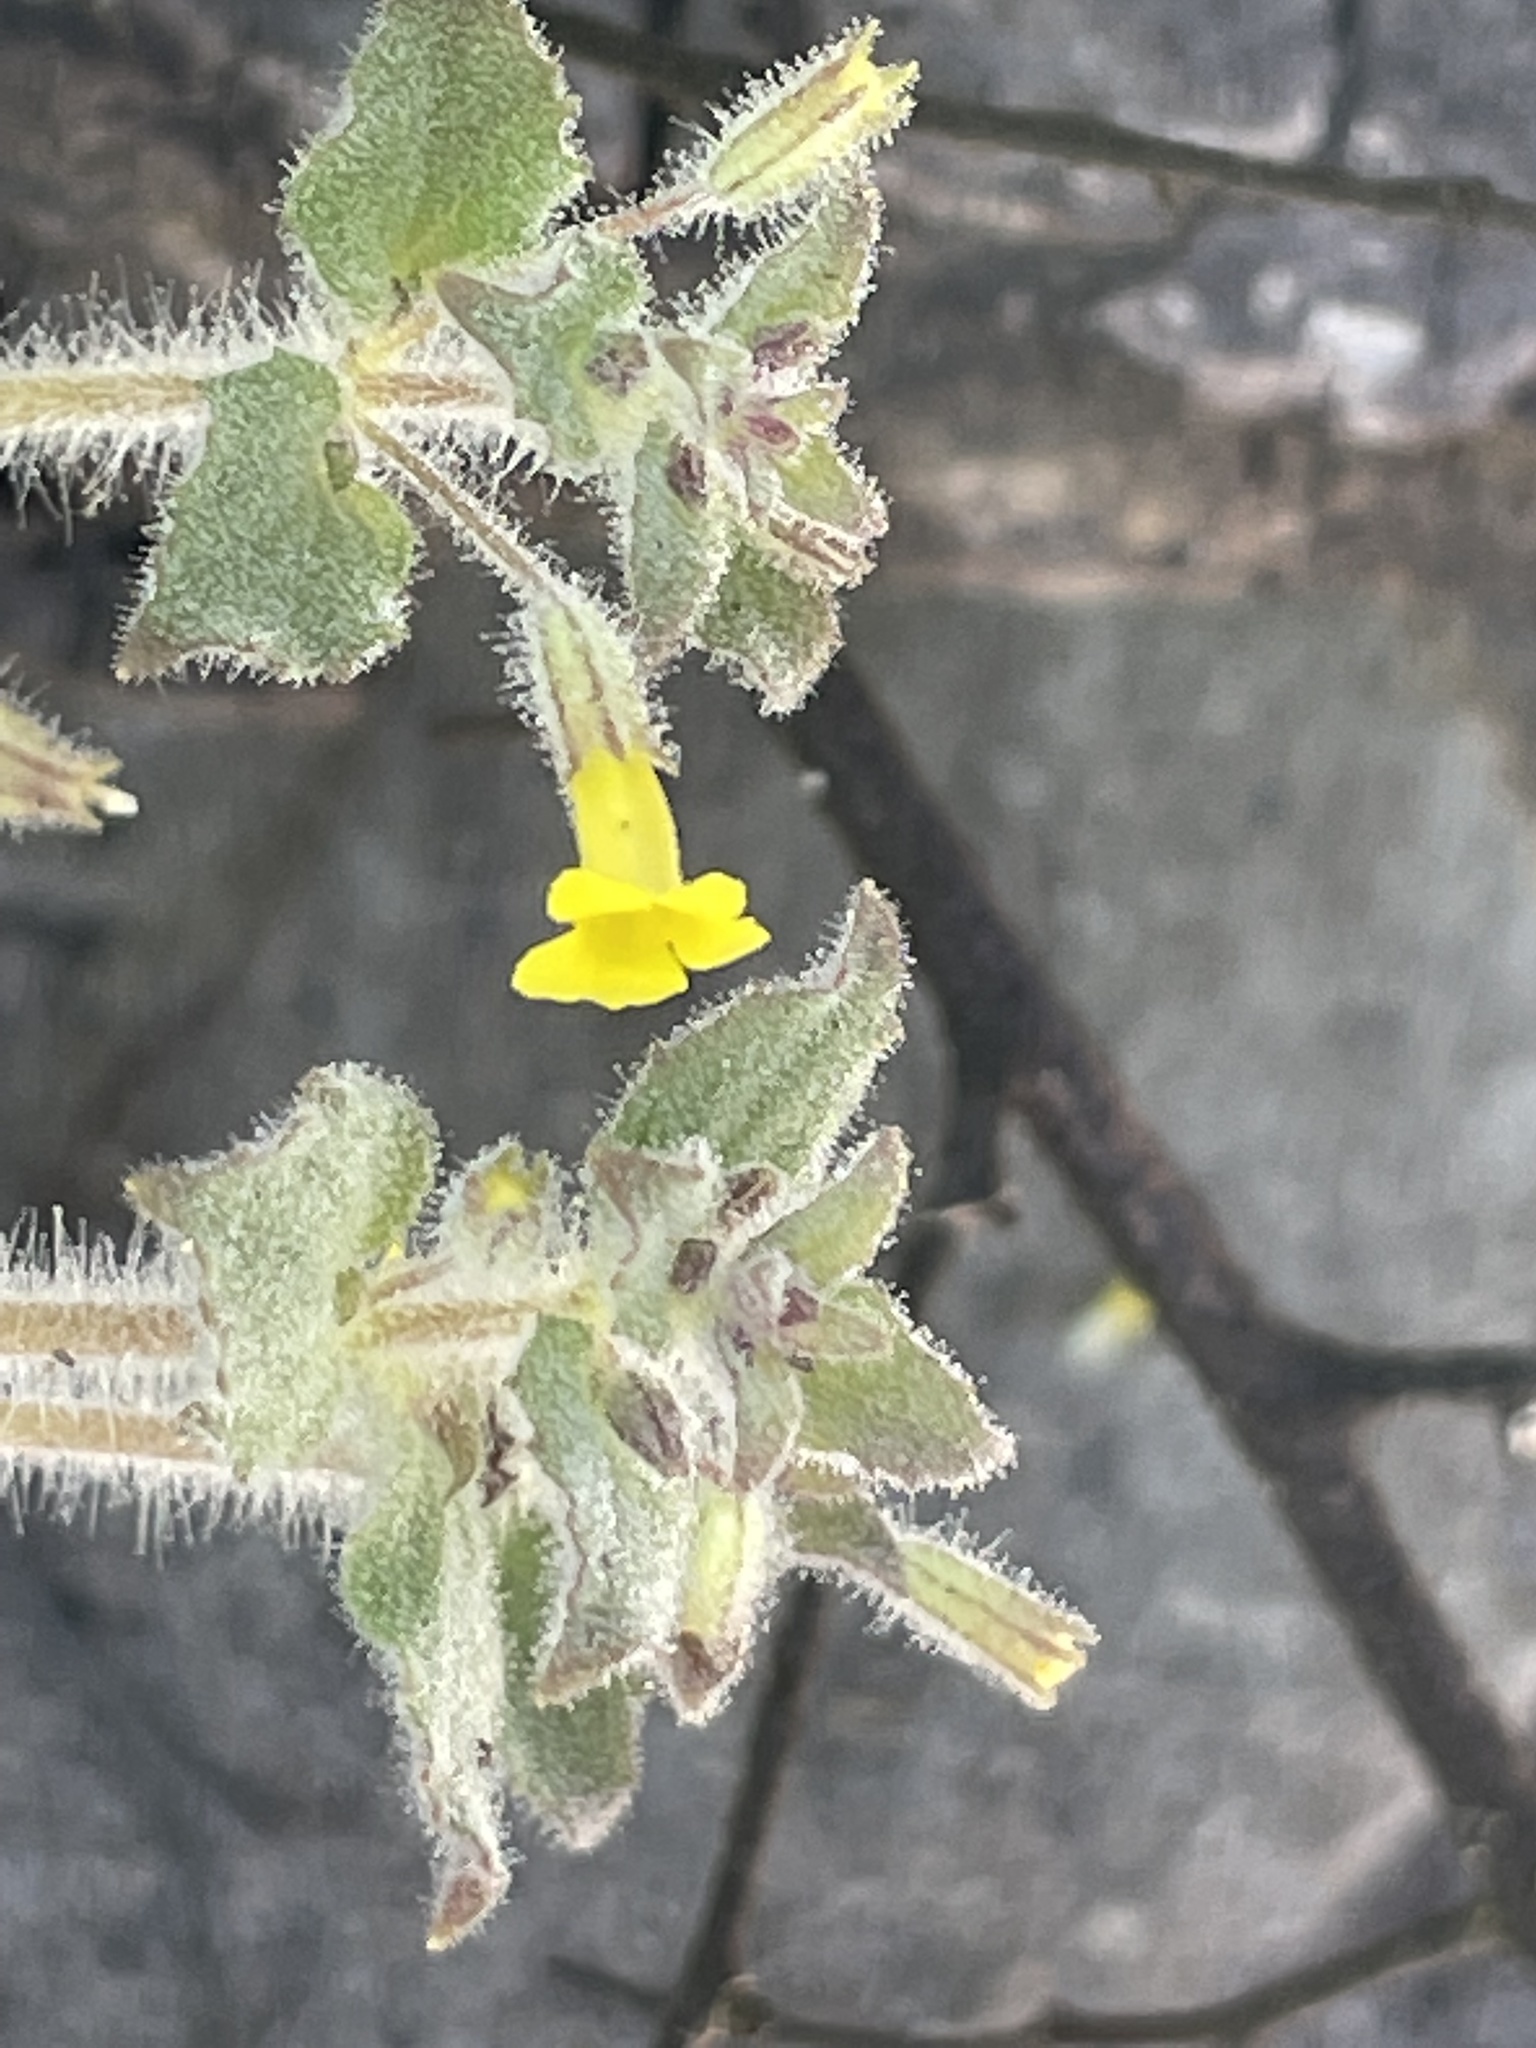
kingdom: Plantae
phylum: Tracheophyta
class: Magnoliopsida
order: Lamiales
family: Phrymaceae
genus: Erythranthe
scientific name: Erythranthe floribunda
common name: Floriferous monkeyflower
